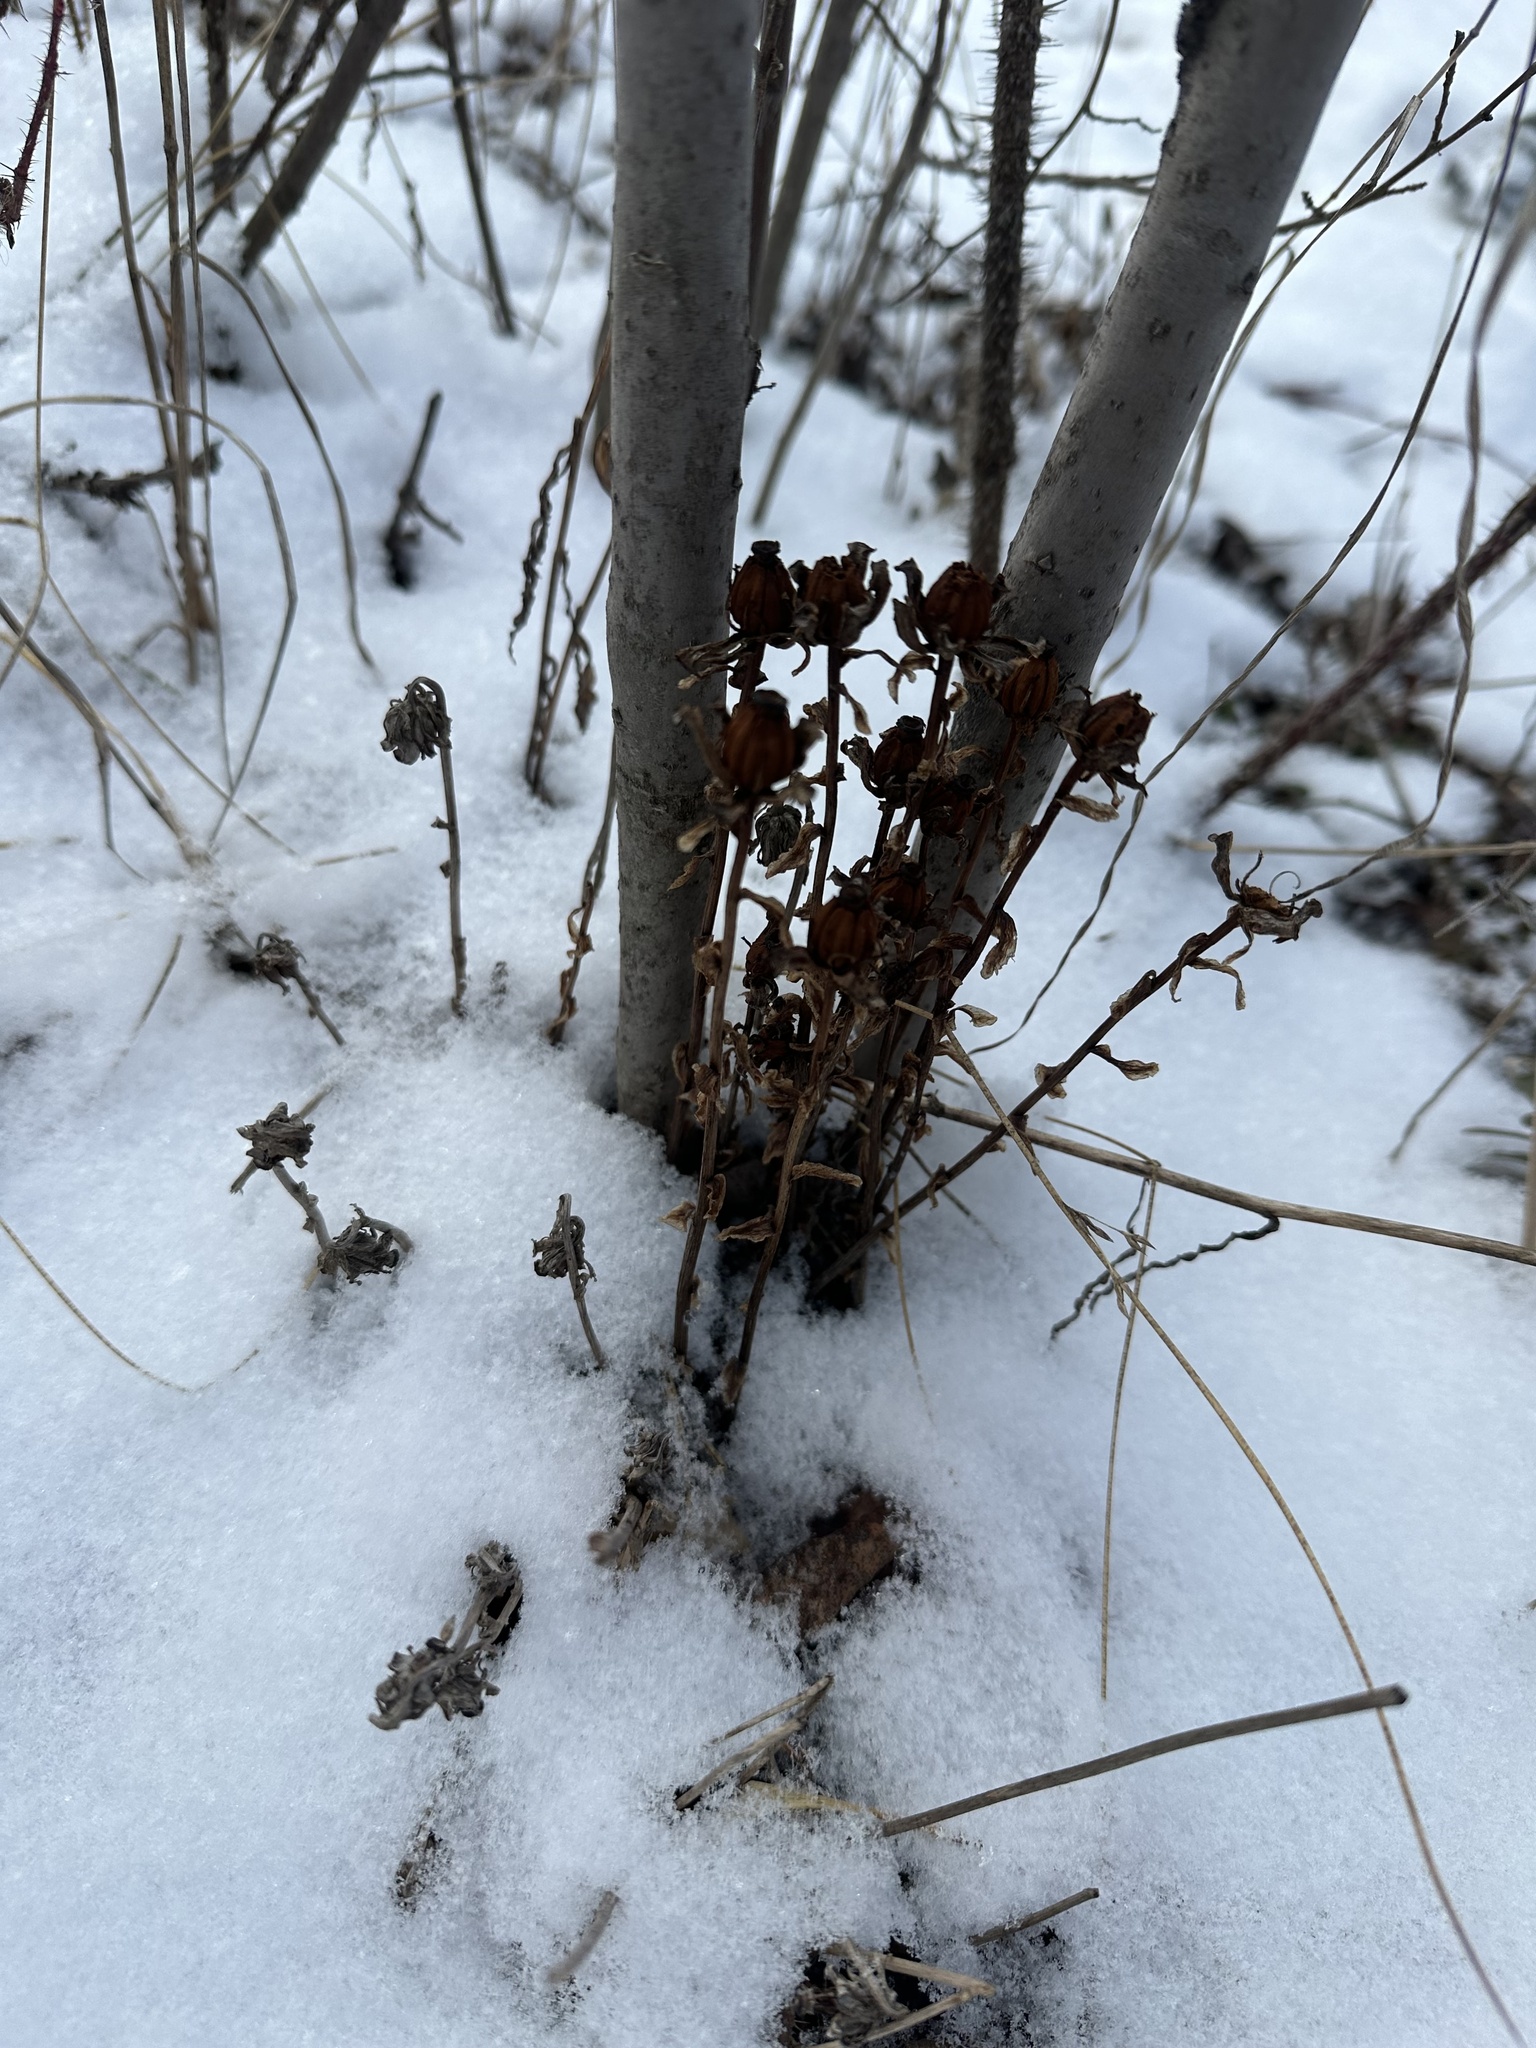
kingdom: Plantae
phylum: Tracheophyta
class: Magnoliopsida
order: Ericales
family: Ericaceae
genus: Monotropa
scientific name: Monotropa uniflora
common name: Convulsion root
